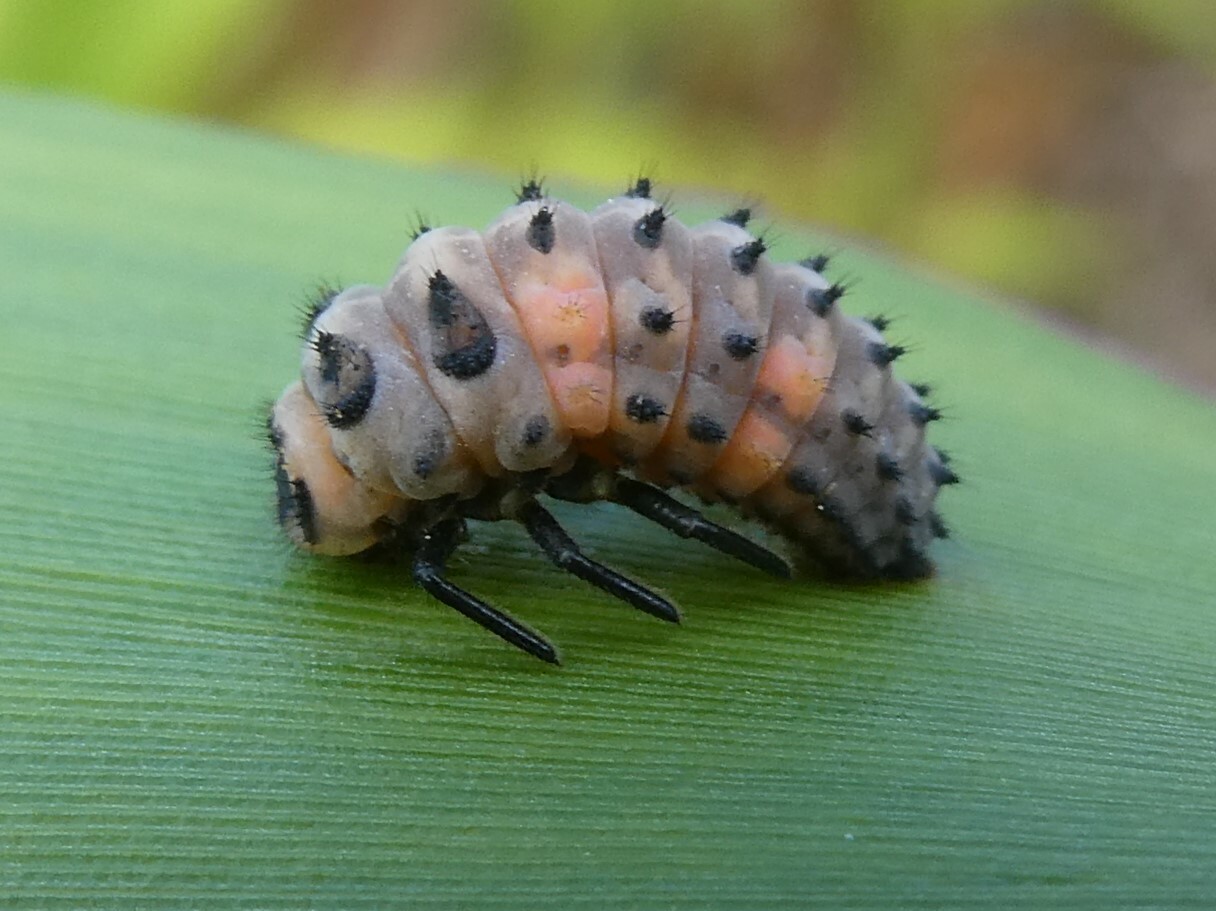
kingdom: Animalia
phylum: Arthropoda
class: Insecta
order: Coleoptera
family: Coccinellidae
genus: Coccinella
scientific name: Coccinella septempunctata
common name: Sevenspotted lady beetle
